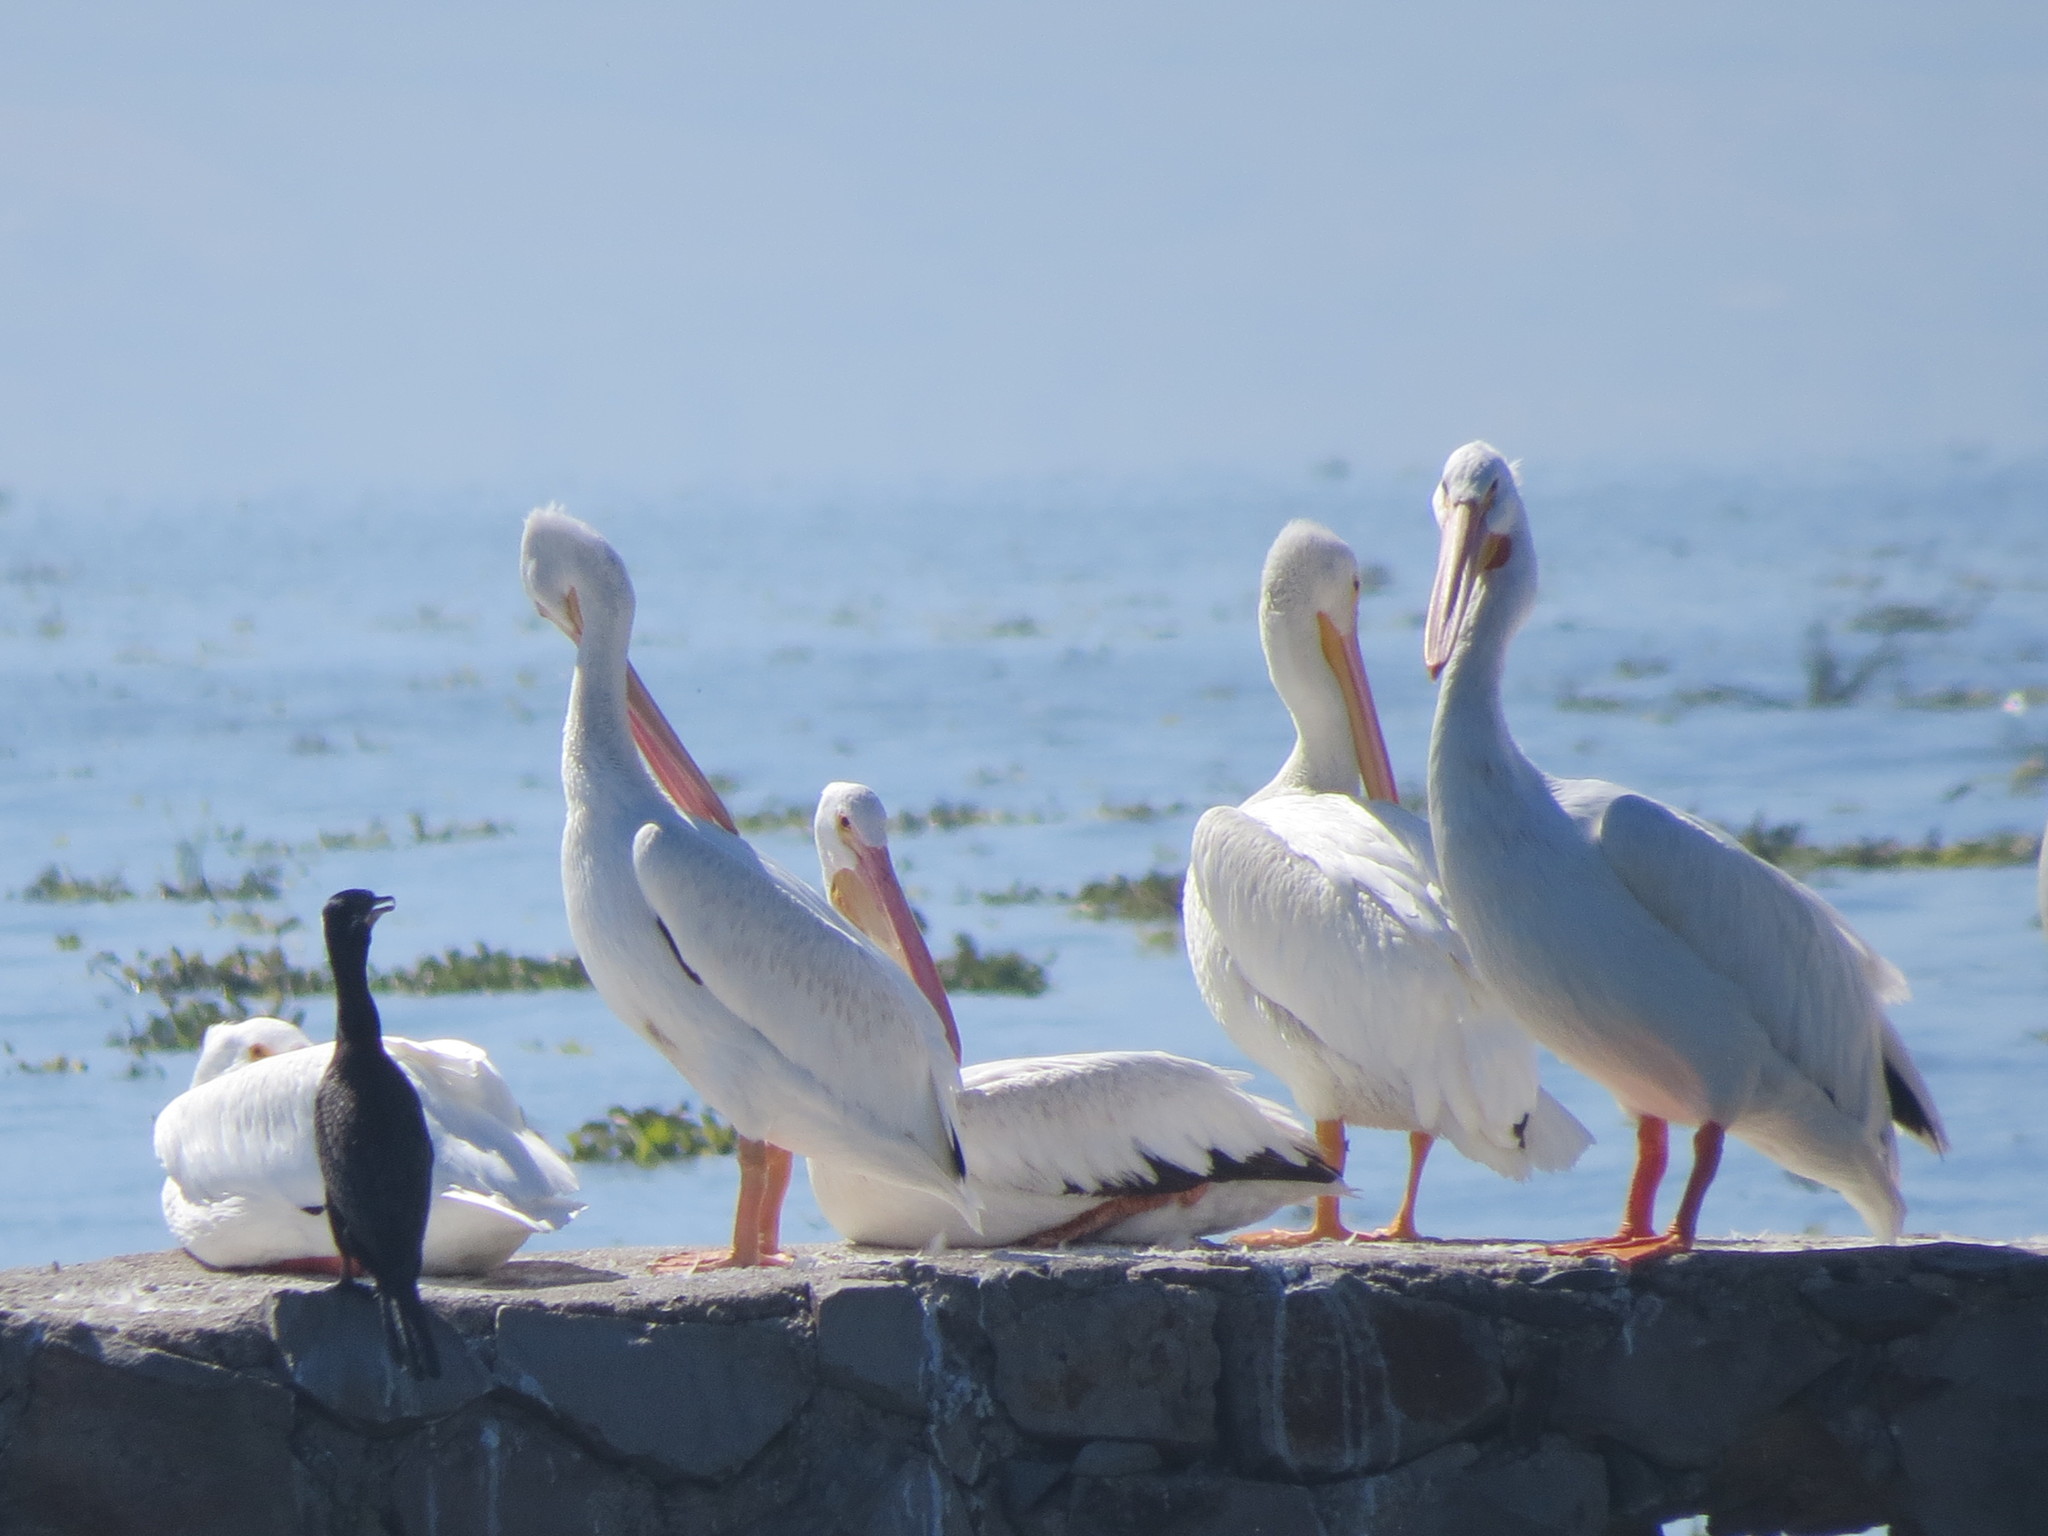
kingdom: Animalia
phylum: Chordata
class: Aves
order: Pelecaniformes
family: Pelecanidae
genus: Pelecanus
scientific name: Pelecanus erythrorhynchos
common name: American white pelican
